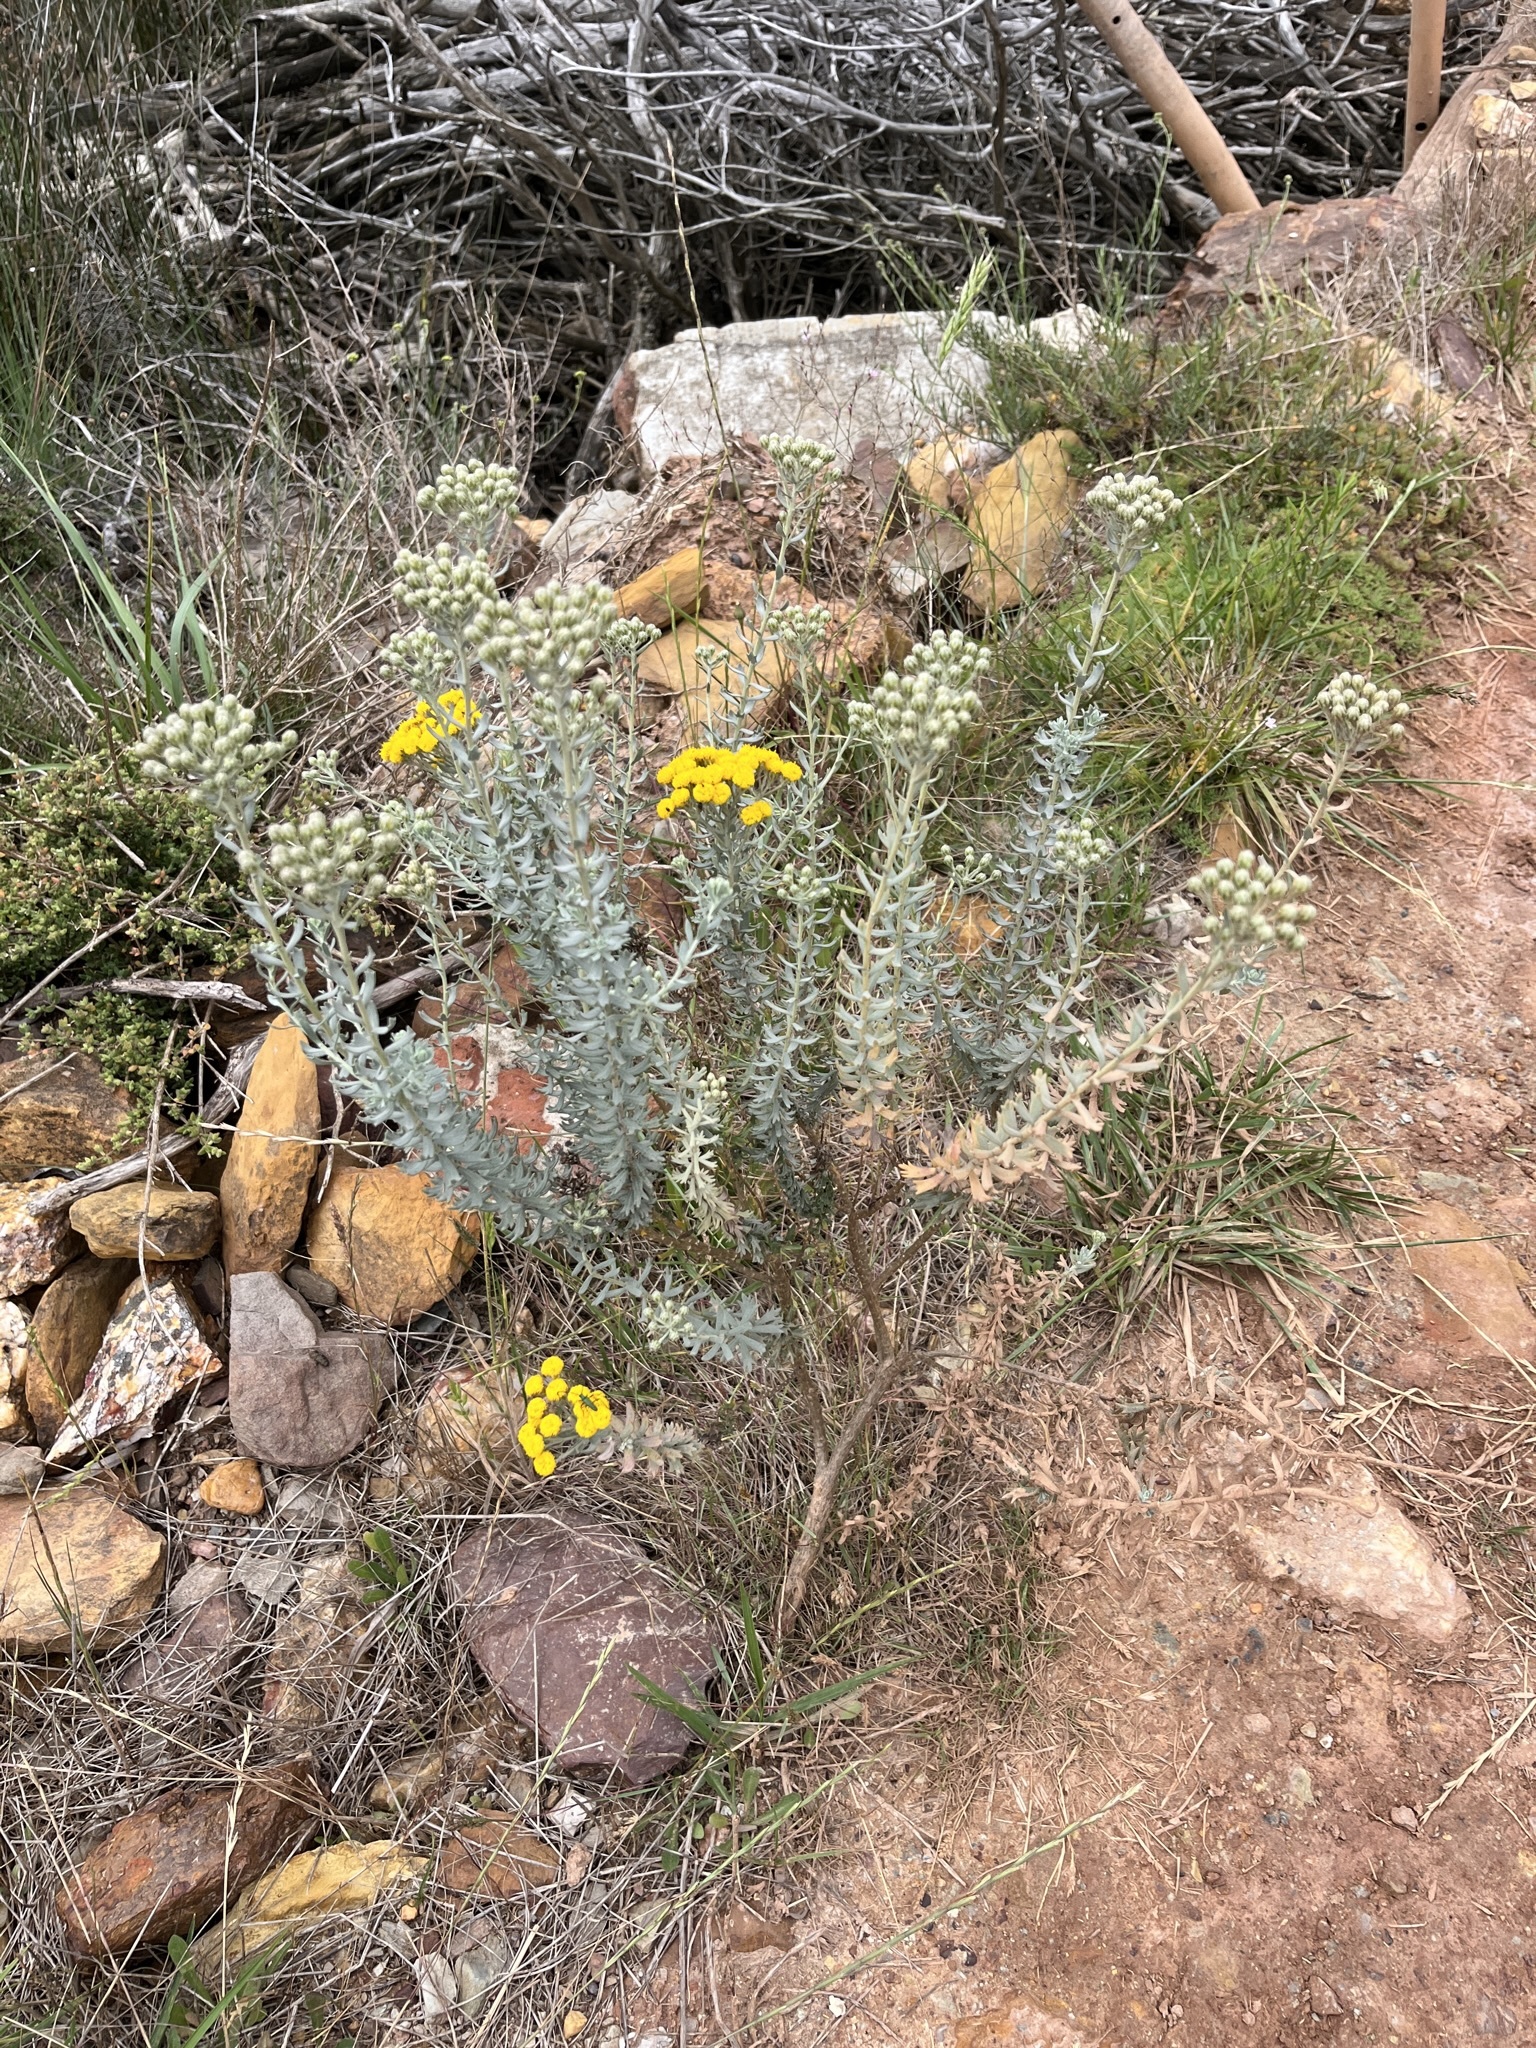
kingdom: Plantae
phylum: Tracheophyta
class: Magnoliopsida
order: Asterales
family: Asteraceae
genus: Athanasia
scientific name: Athanasia trifurcata
